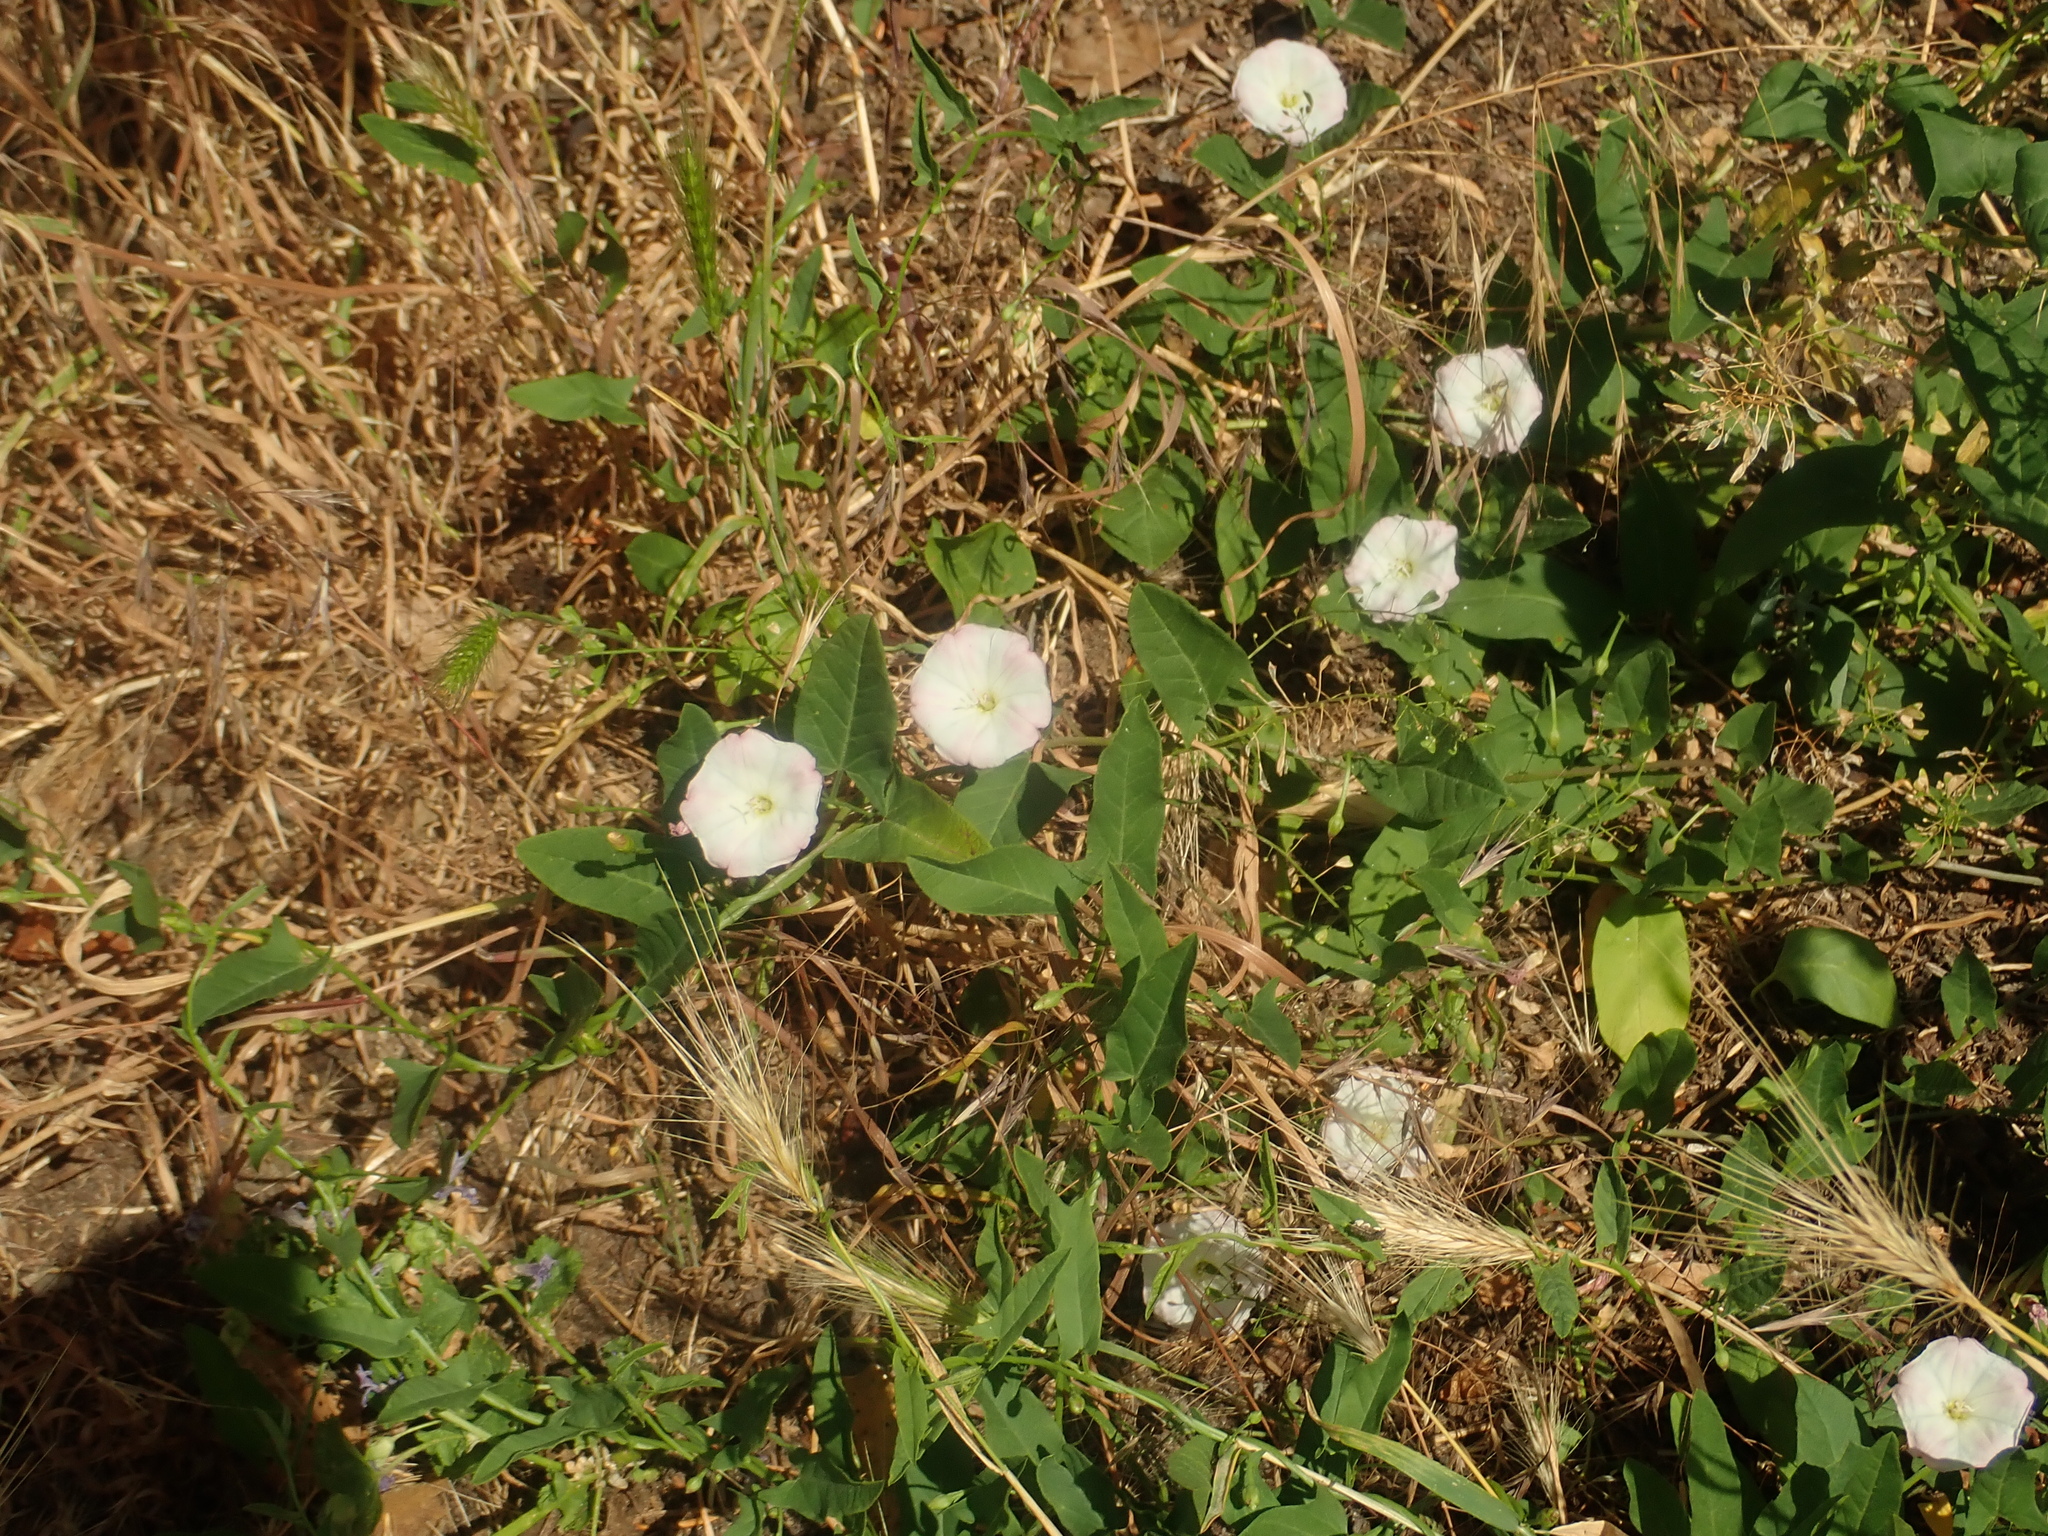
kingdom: Plantae
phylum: Tracheophyta
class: Magnoliopsida
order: Solanales
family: Convolvulaceae
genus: Convolvulus
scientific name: Convolvulus arvensis
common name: Field bindweed
